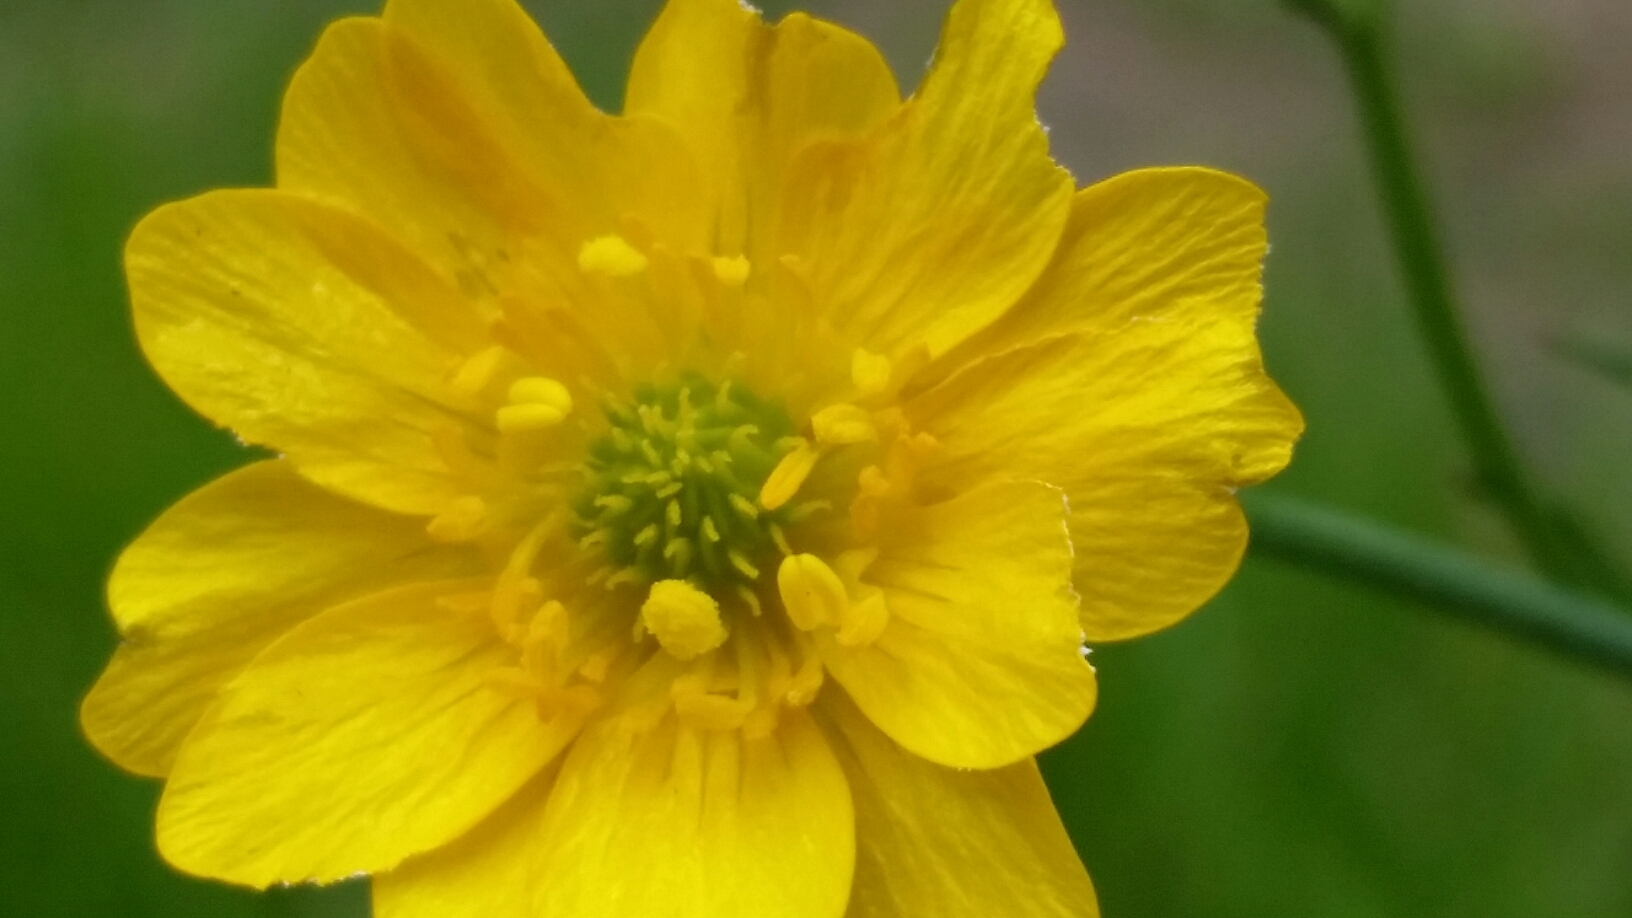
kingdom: Plantae
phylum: Tracheophyta
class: Magnoliopsida
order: Ranunculales
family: Ranunculaceae
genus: Ranunculus
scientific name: Ranunculus californicus
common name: California buttercup
